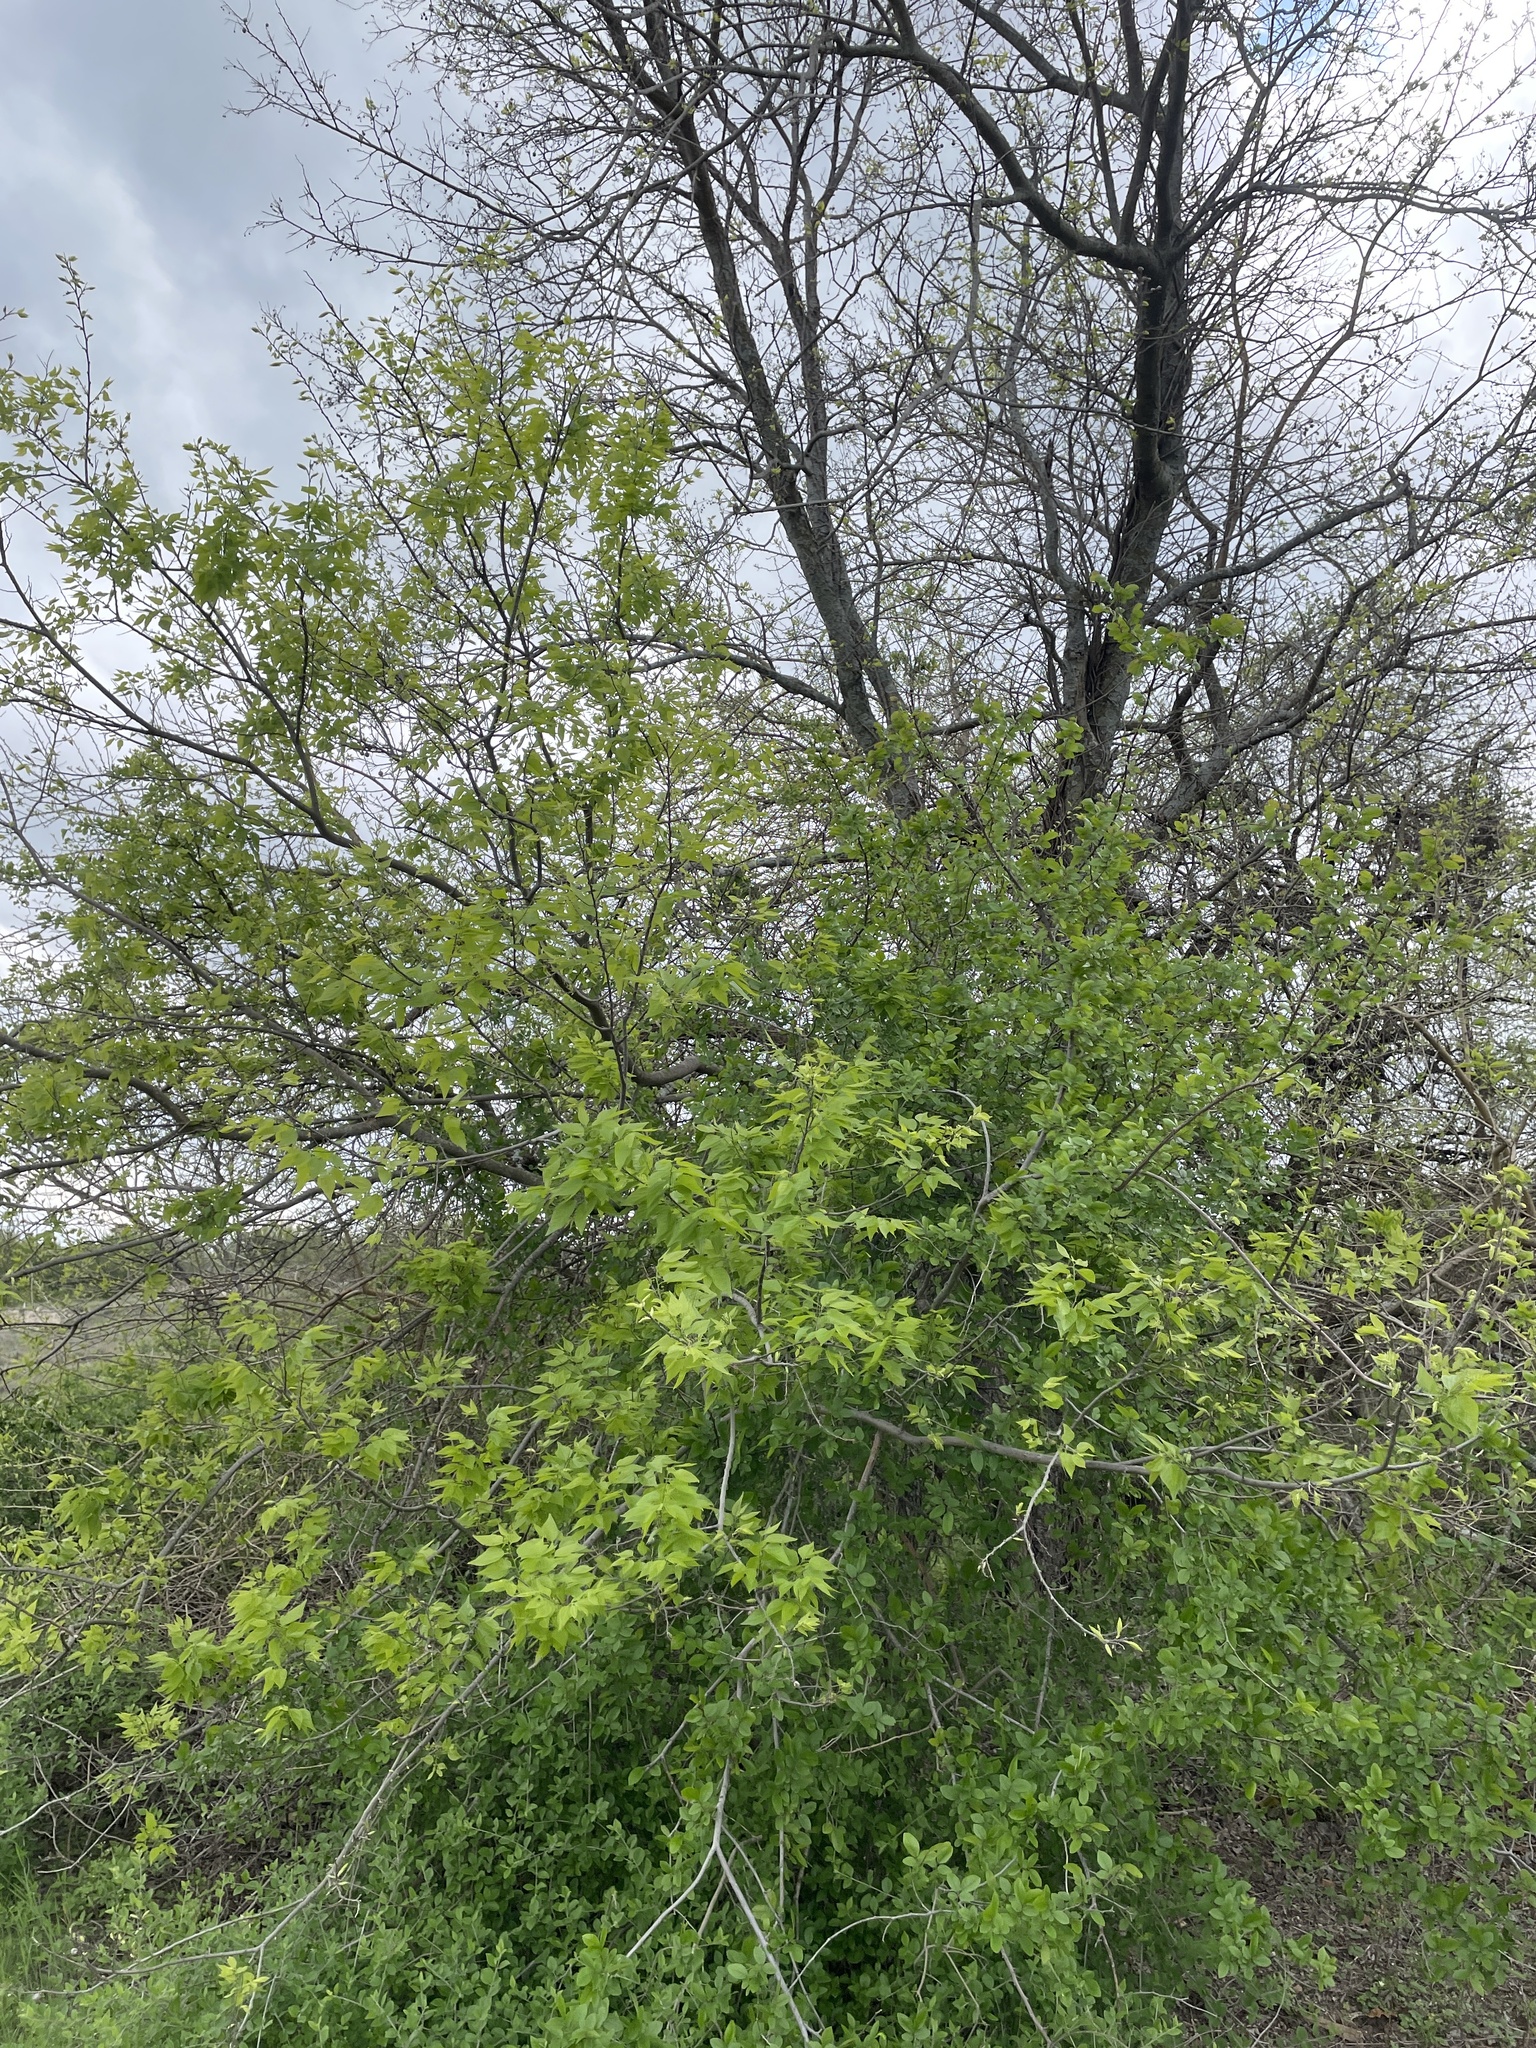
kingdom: Plantae
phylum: Tracheophyta
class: Magnoliopsida
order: Rosales
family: Cannabaceae
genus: Celtis
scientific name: Celtis laevigata
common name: Sugarberry
